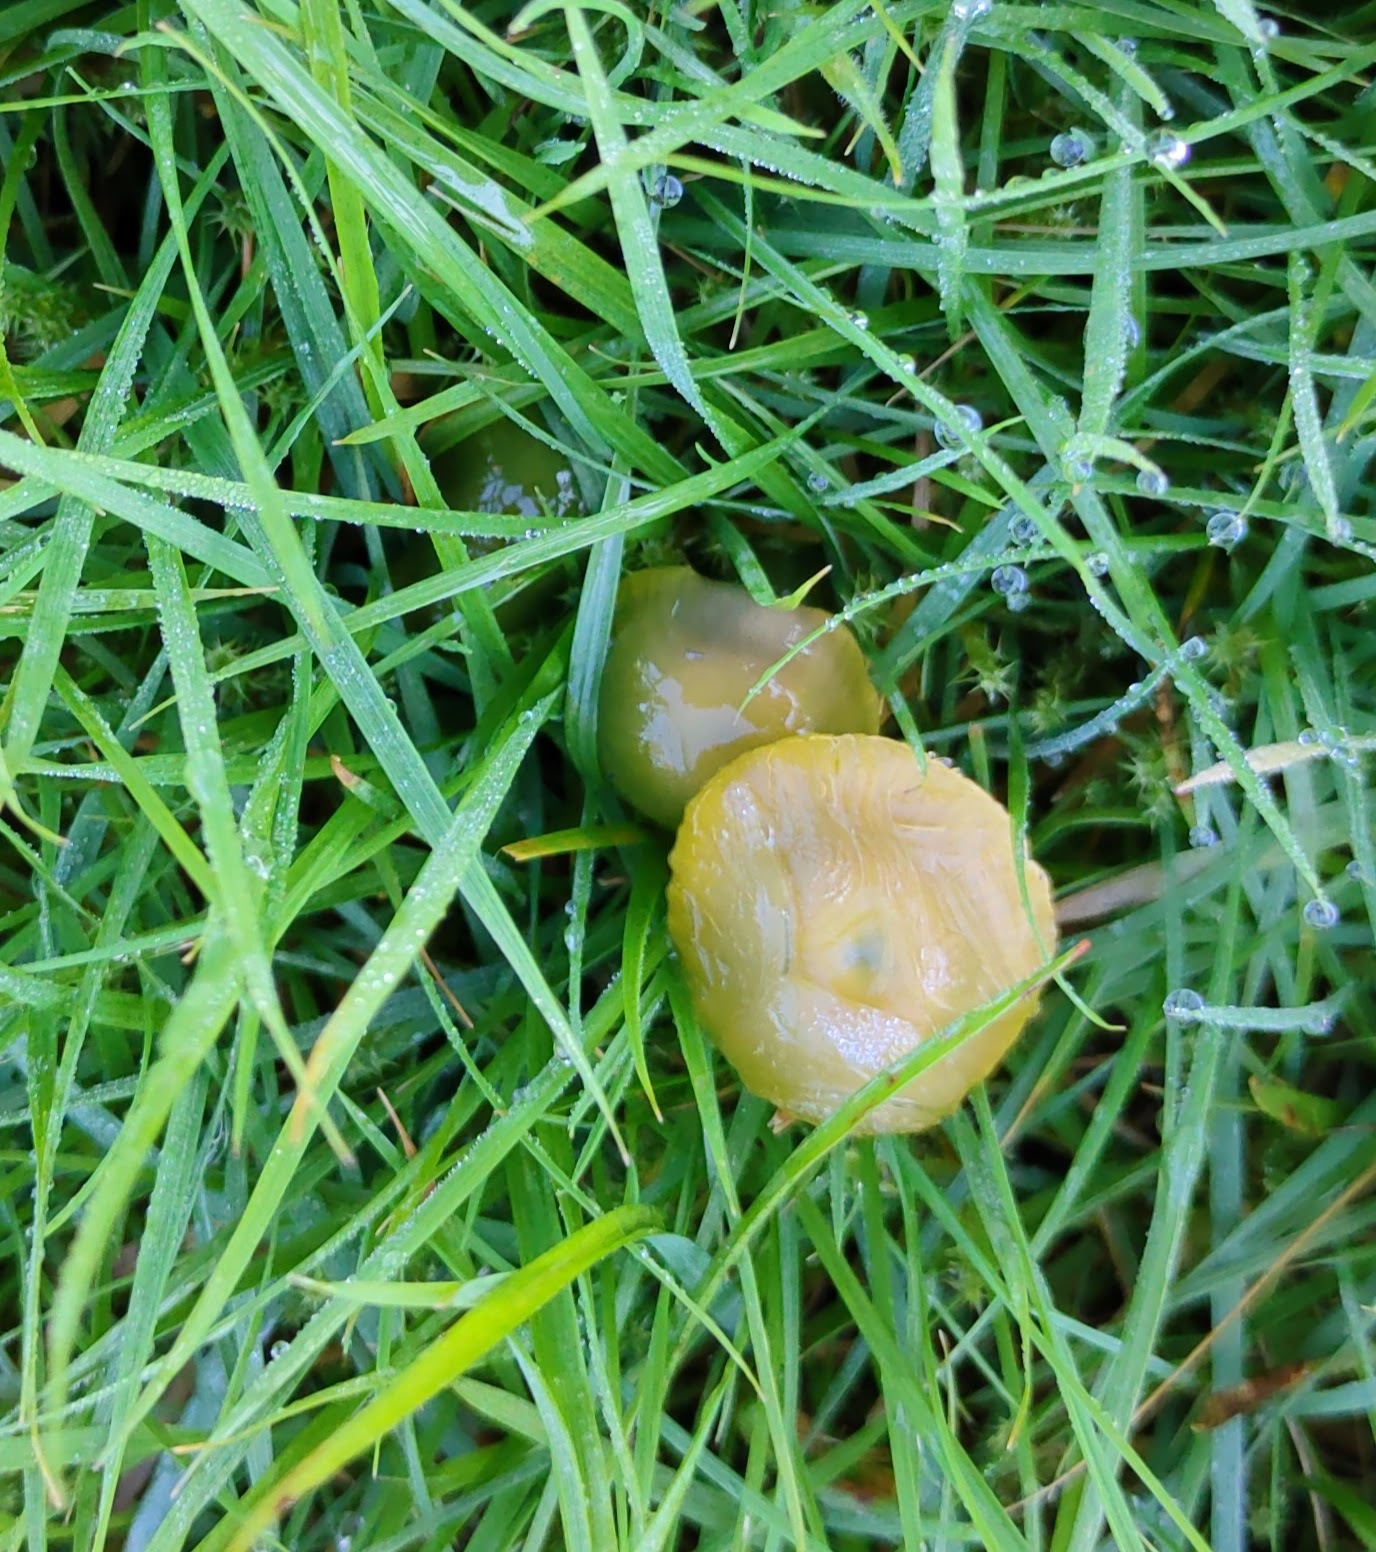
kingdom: Fungi
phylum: Basidiomycota
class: Agaricomycetes
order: Agaricales
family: Hygrophoraceae
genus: Gliophorus
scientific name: Gliophorus psittacinus
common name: Parrot wax-cap
